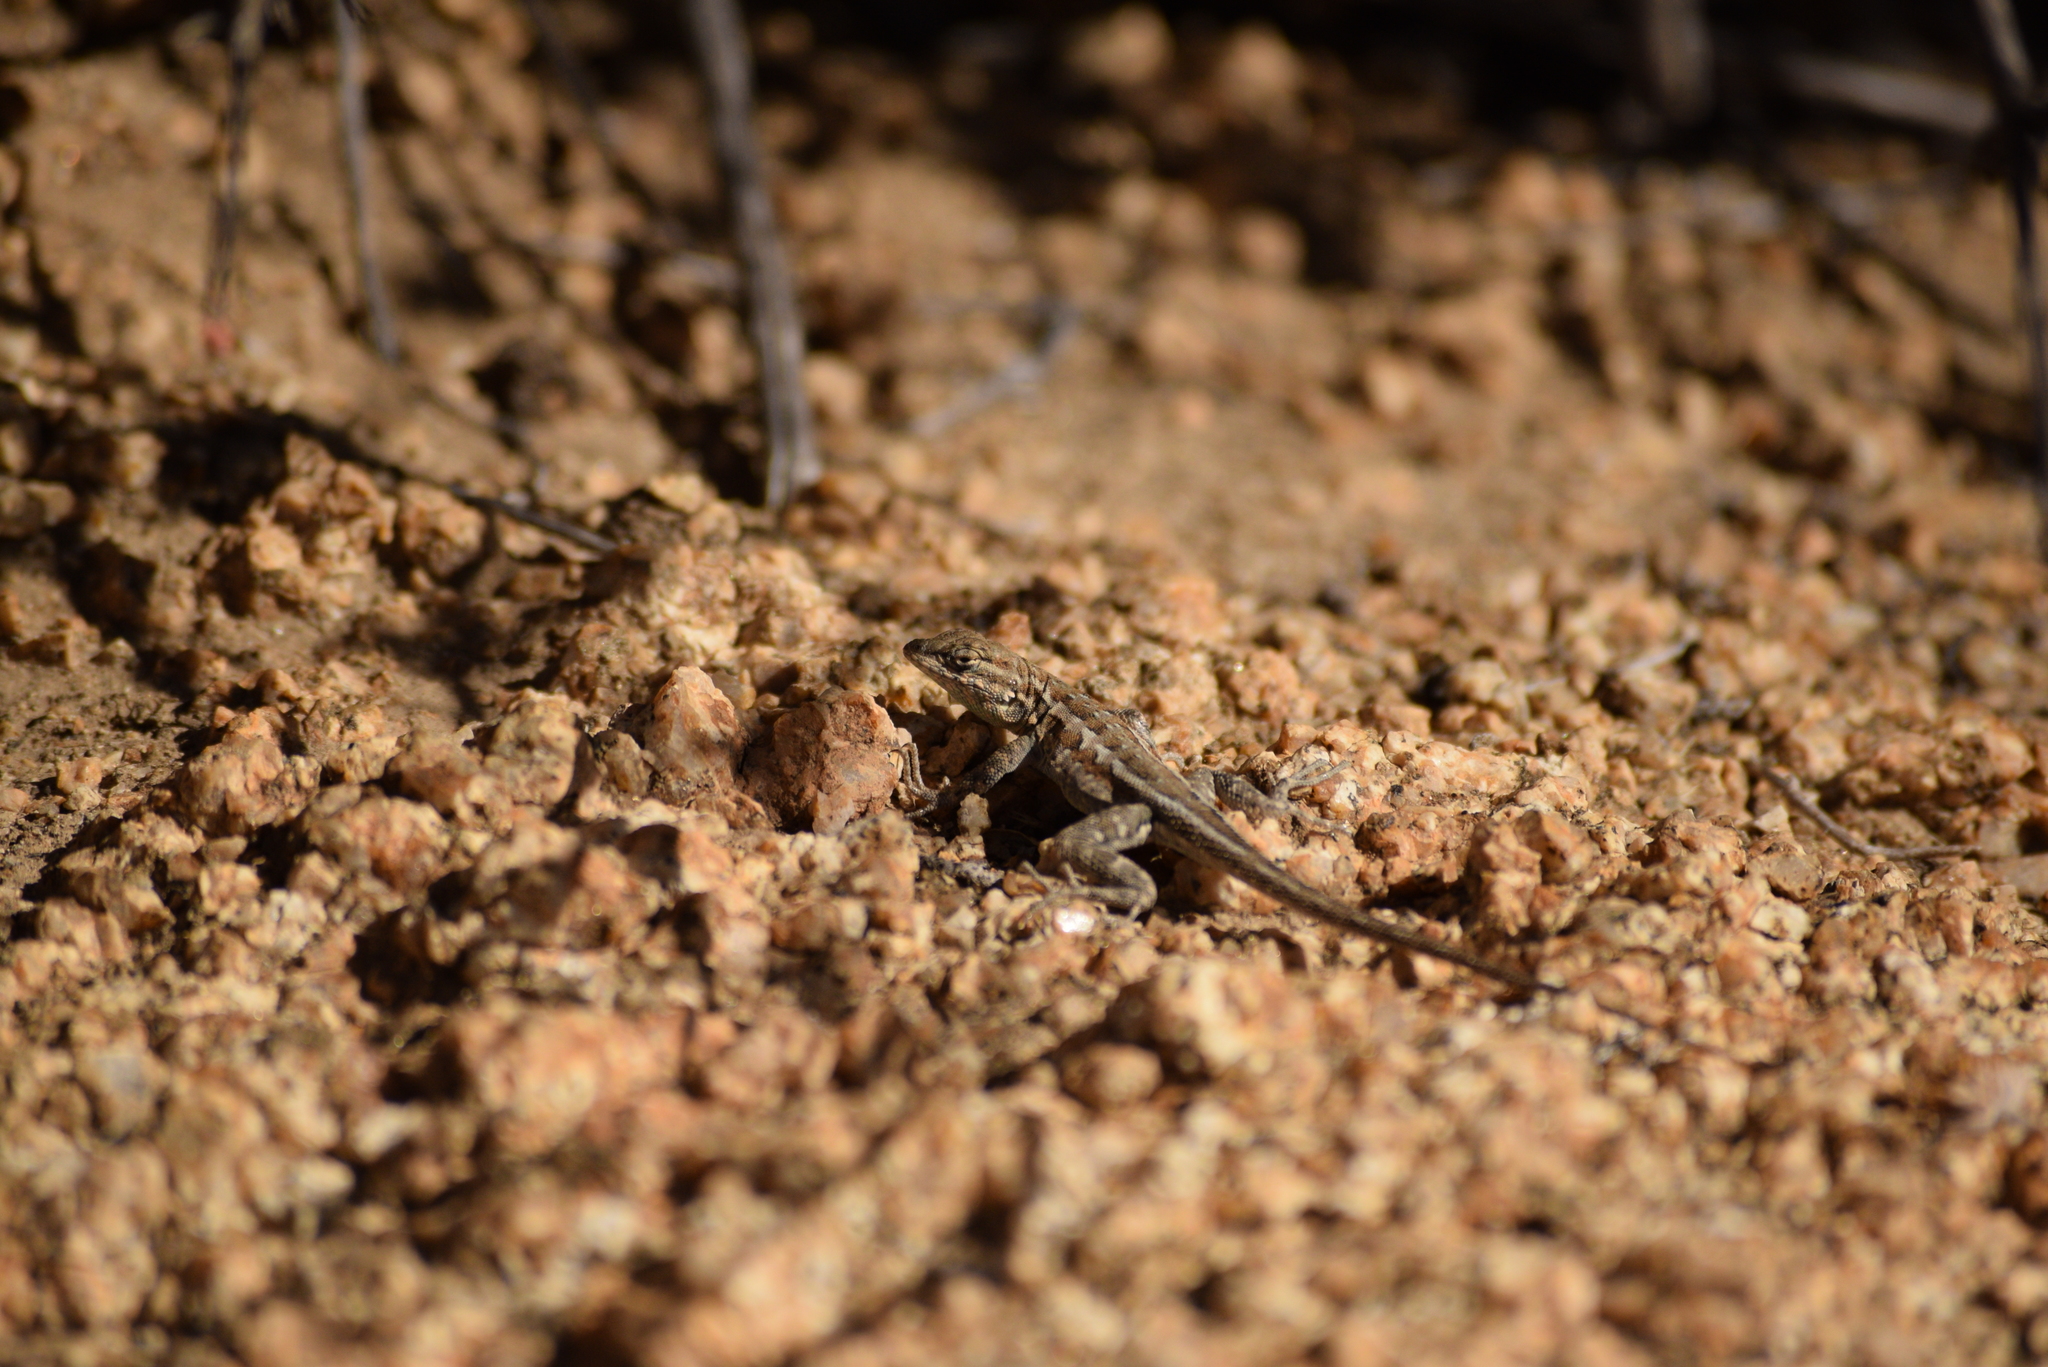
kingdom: Animalia
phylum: Chordata
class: Squamata
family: Phrynosomatidae
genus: Uta
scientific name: Uta stansburiana
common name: Side-blotched lizard
